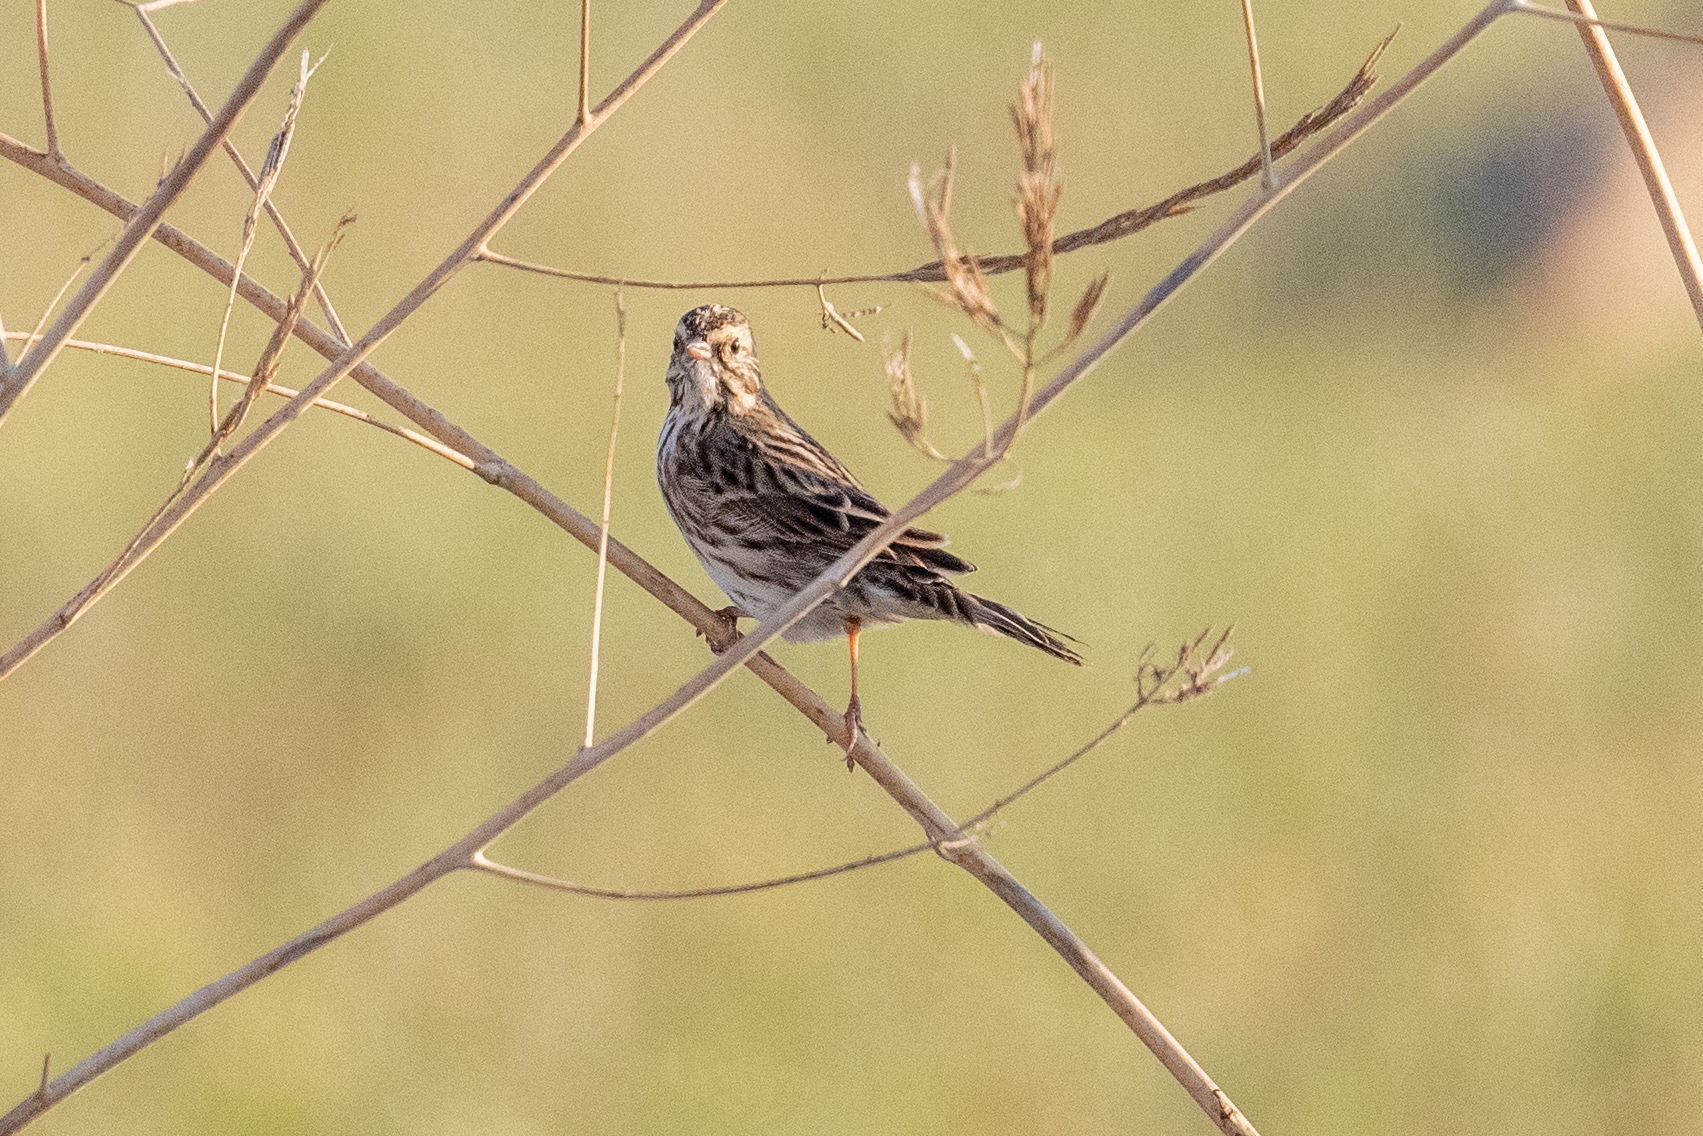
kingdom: Animalia
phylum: Chordata
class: Aves
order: Passeriformes
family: Passerellidae
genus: Passerculus
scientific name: Passerculus sandwichensis
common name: Savannah sparrow
